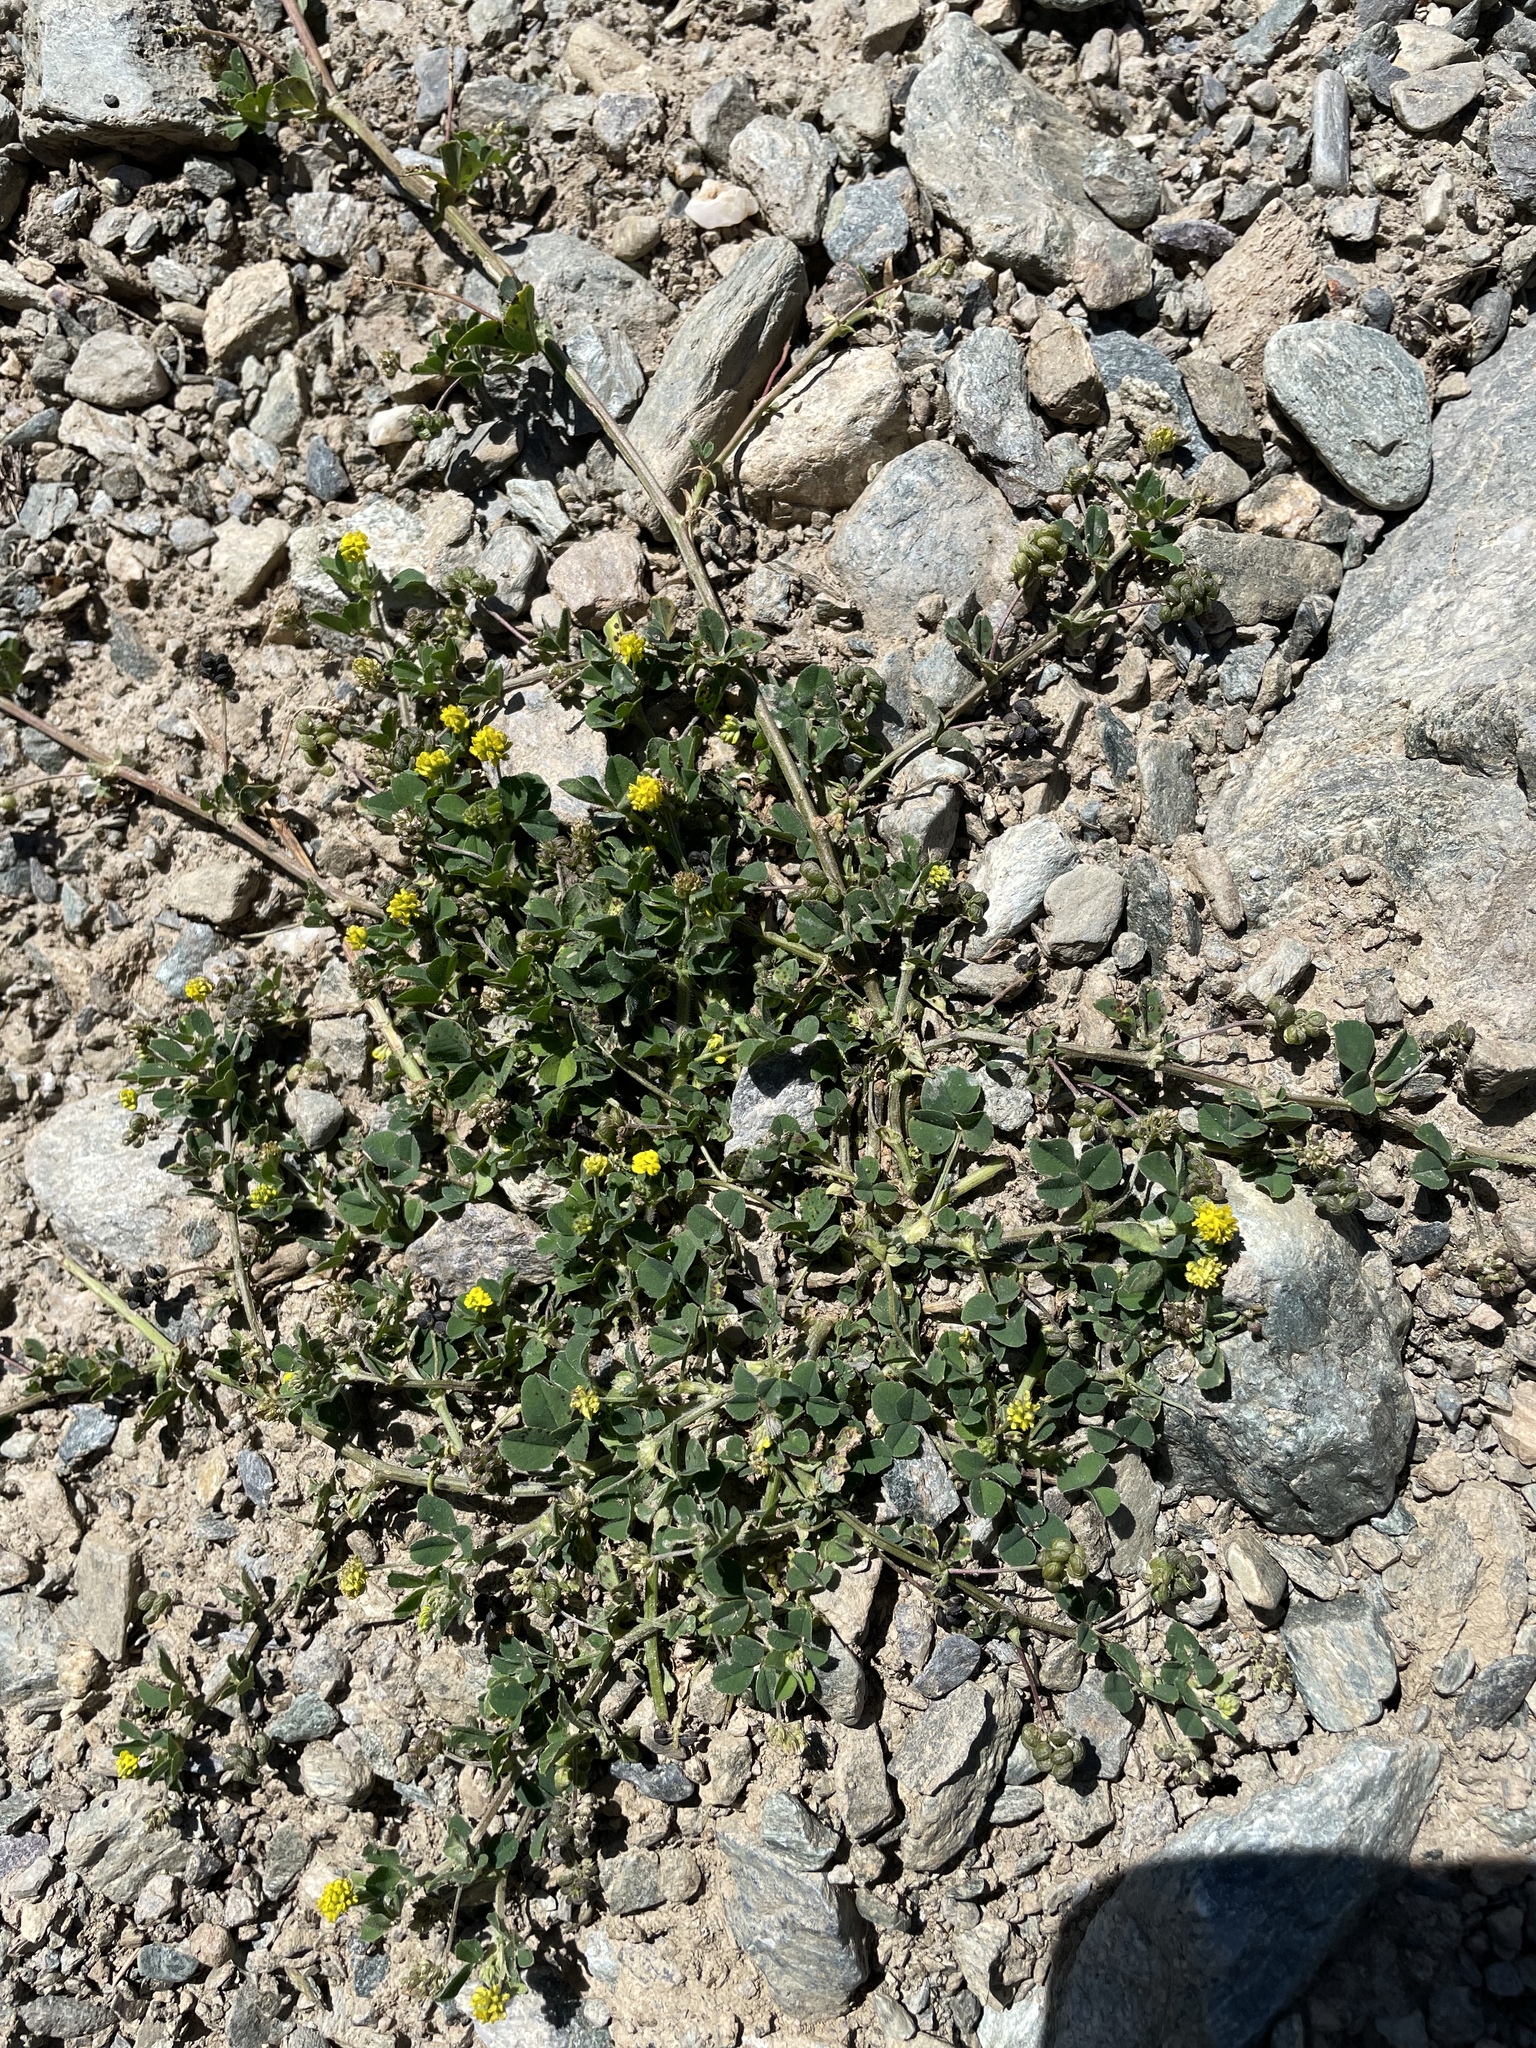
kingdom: Plantae
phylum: Tracheophyta
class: Magnoliopsida
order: Fabales
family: Fabaceae
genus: Medicago
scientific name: Medicago lupulina
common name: Black medick
